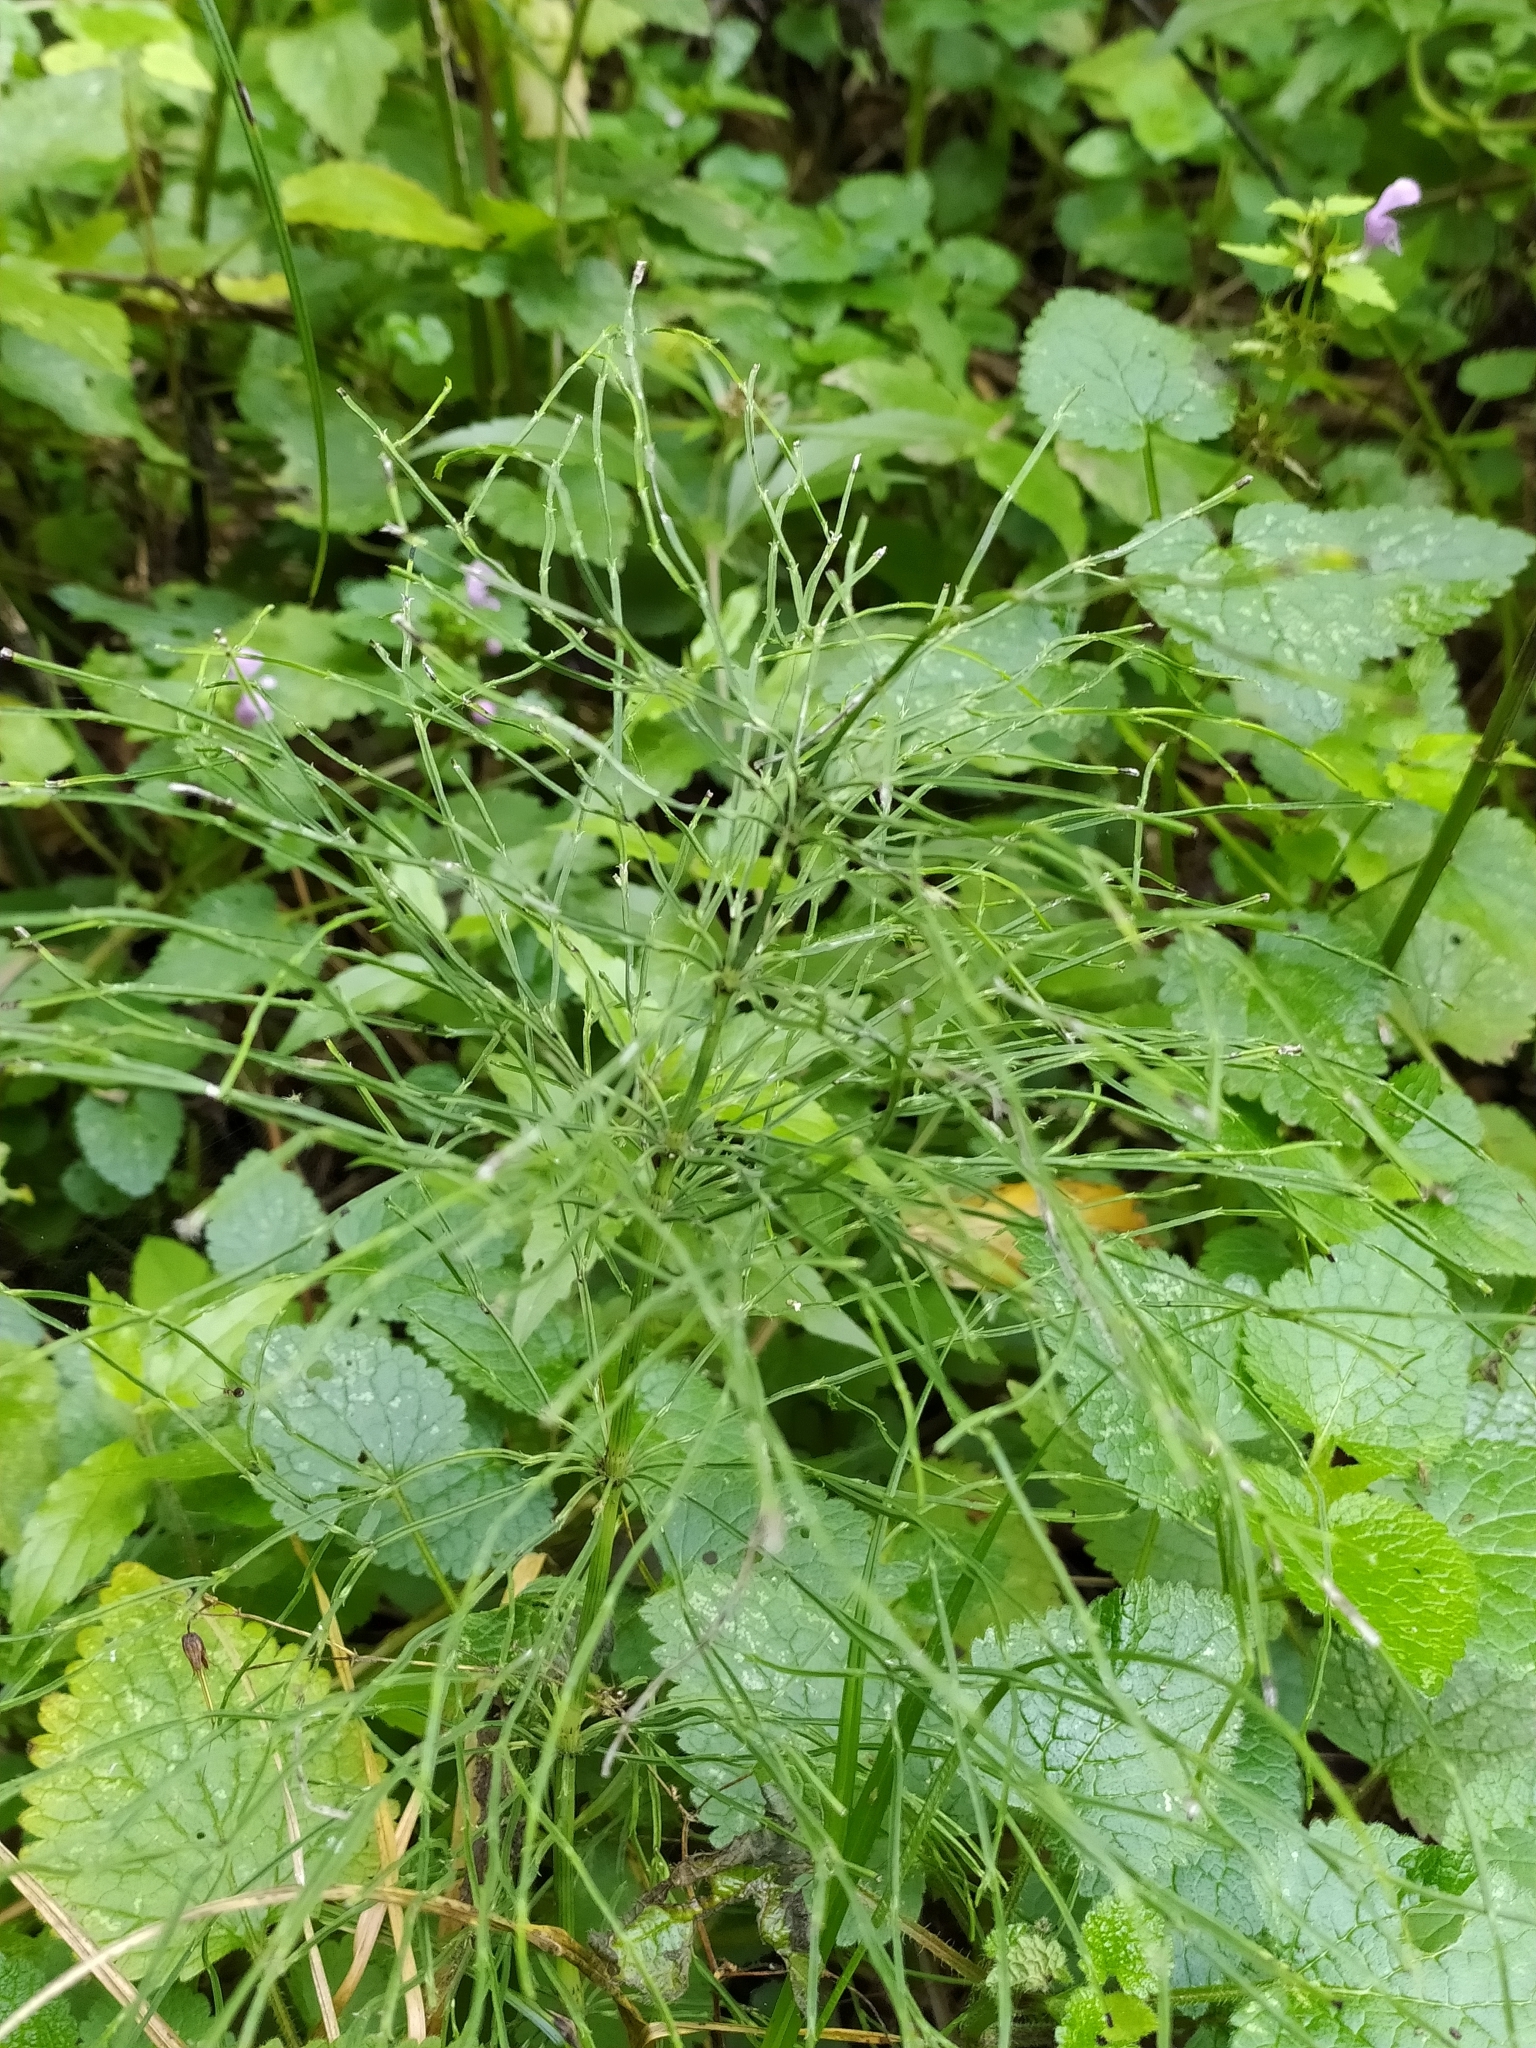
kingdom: Plantae
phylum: Tracheophyta
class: Polypodiopsida
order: Equisetales
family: Equisetaceae
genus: Equisetum
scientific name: Equisetum arvense
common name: Field horsetail
